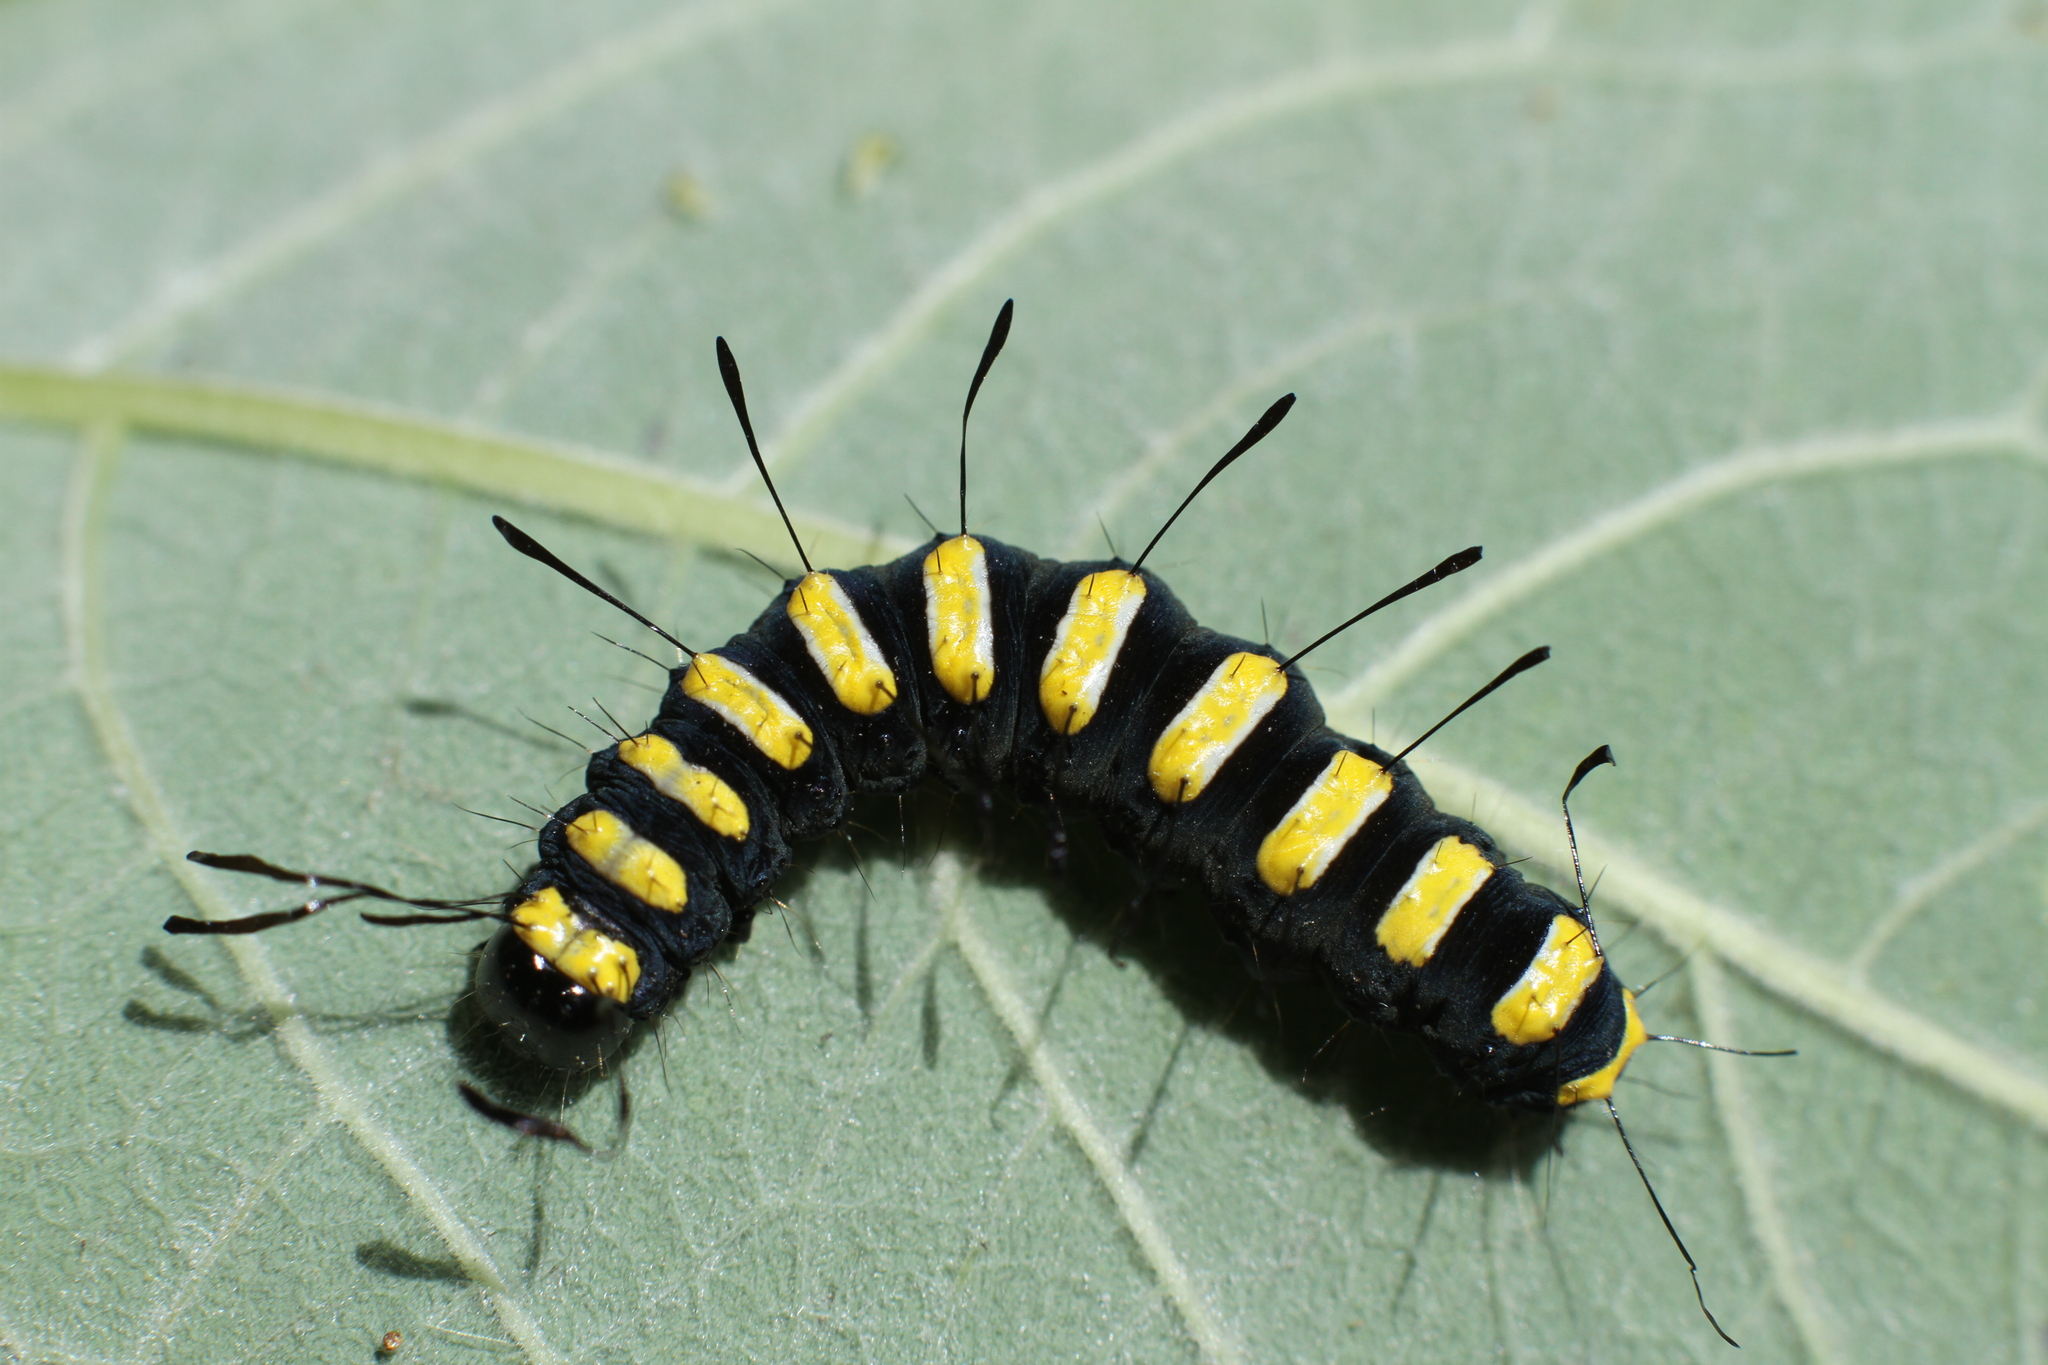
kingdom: Animalia
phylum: Arthropoda
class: Insecta
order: Lepidoptera
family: Noctuidae
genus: Acronicta
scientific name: Acronicta alni
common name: Alder moth
